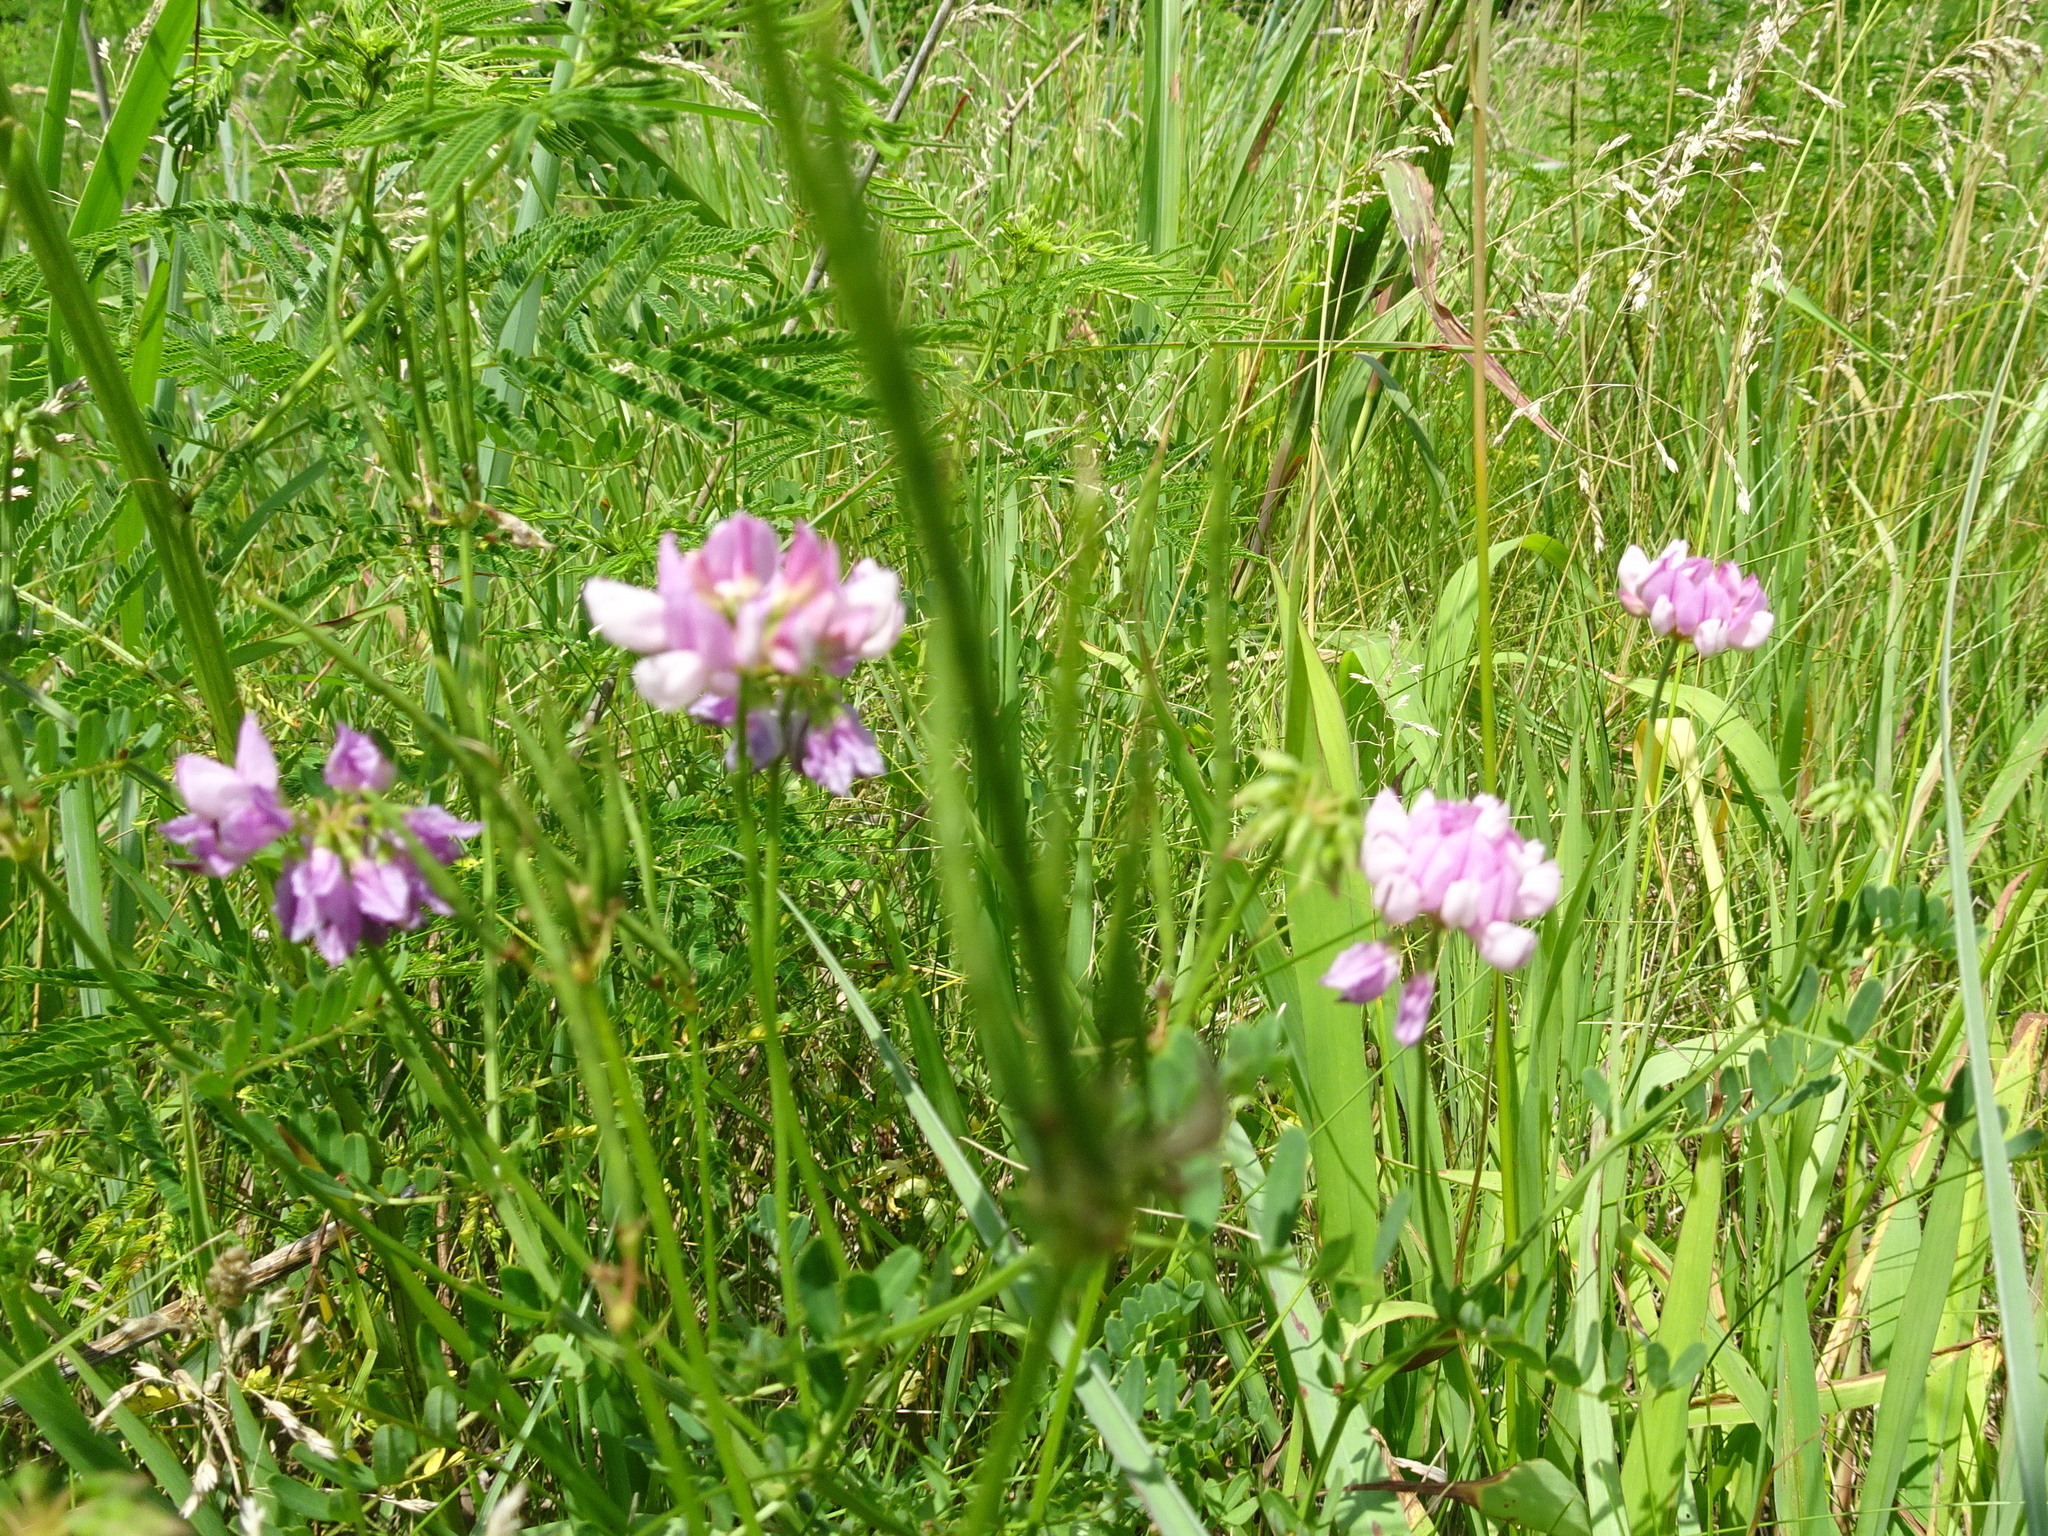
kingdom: Plantae
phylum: Tracheophyta
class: Magnoliopsida
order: Fabales
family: Fabaceae
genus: Coronilla
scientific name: Coronilla varia
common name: Crownvetch
